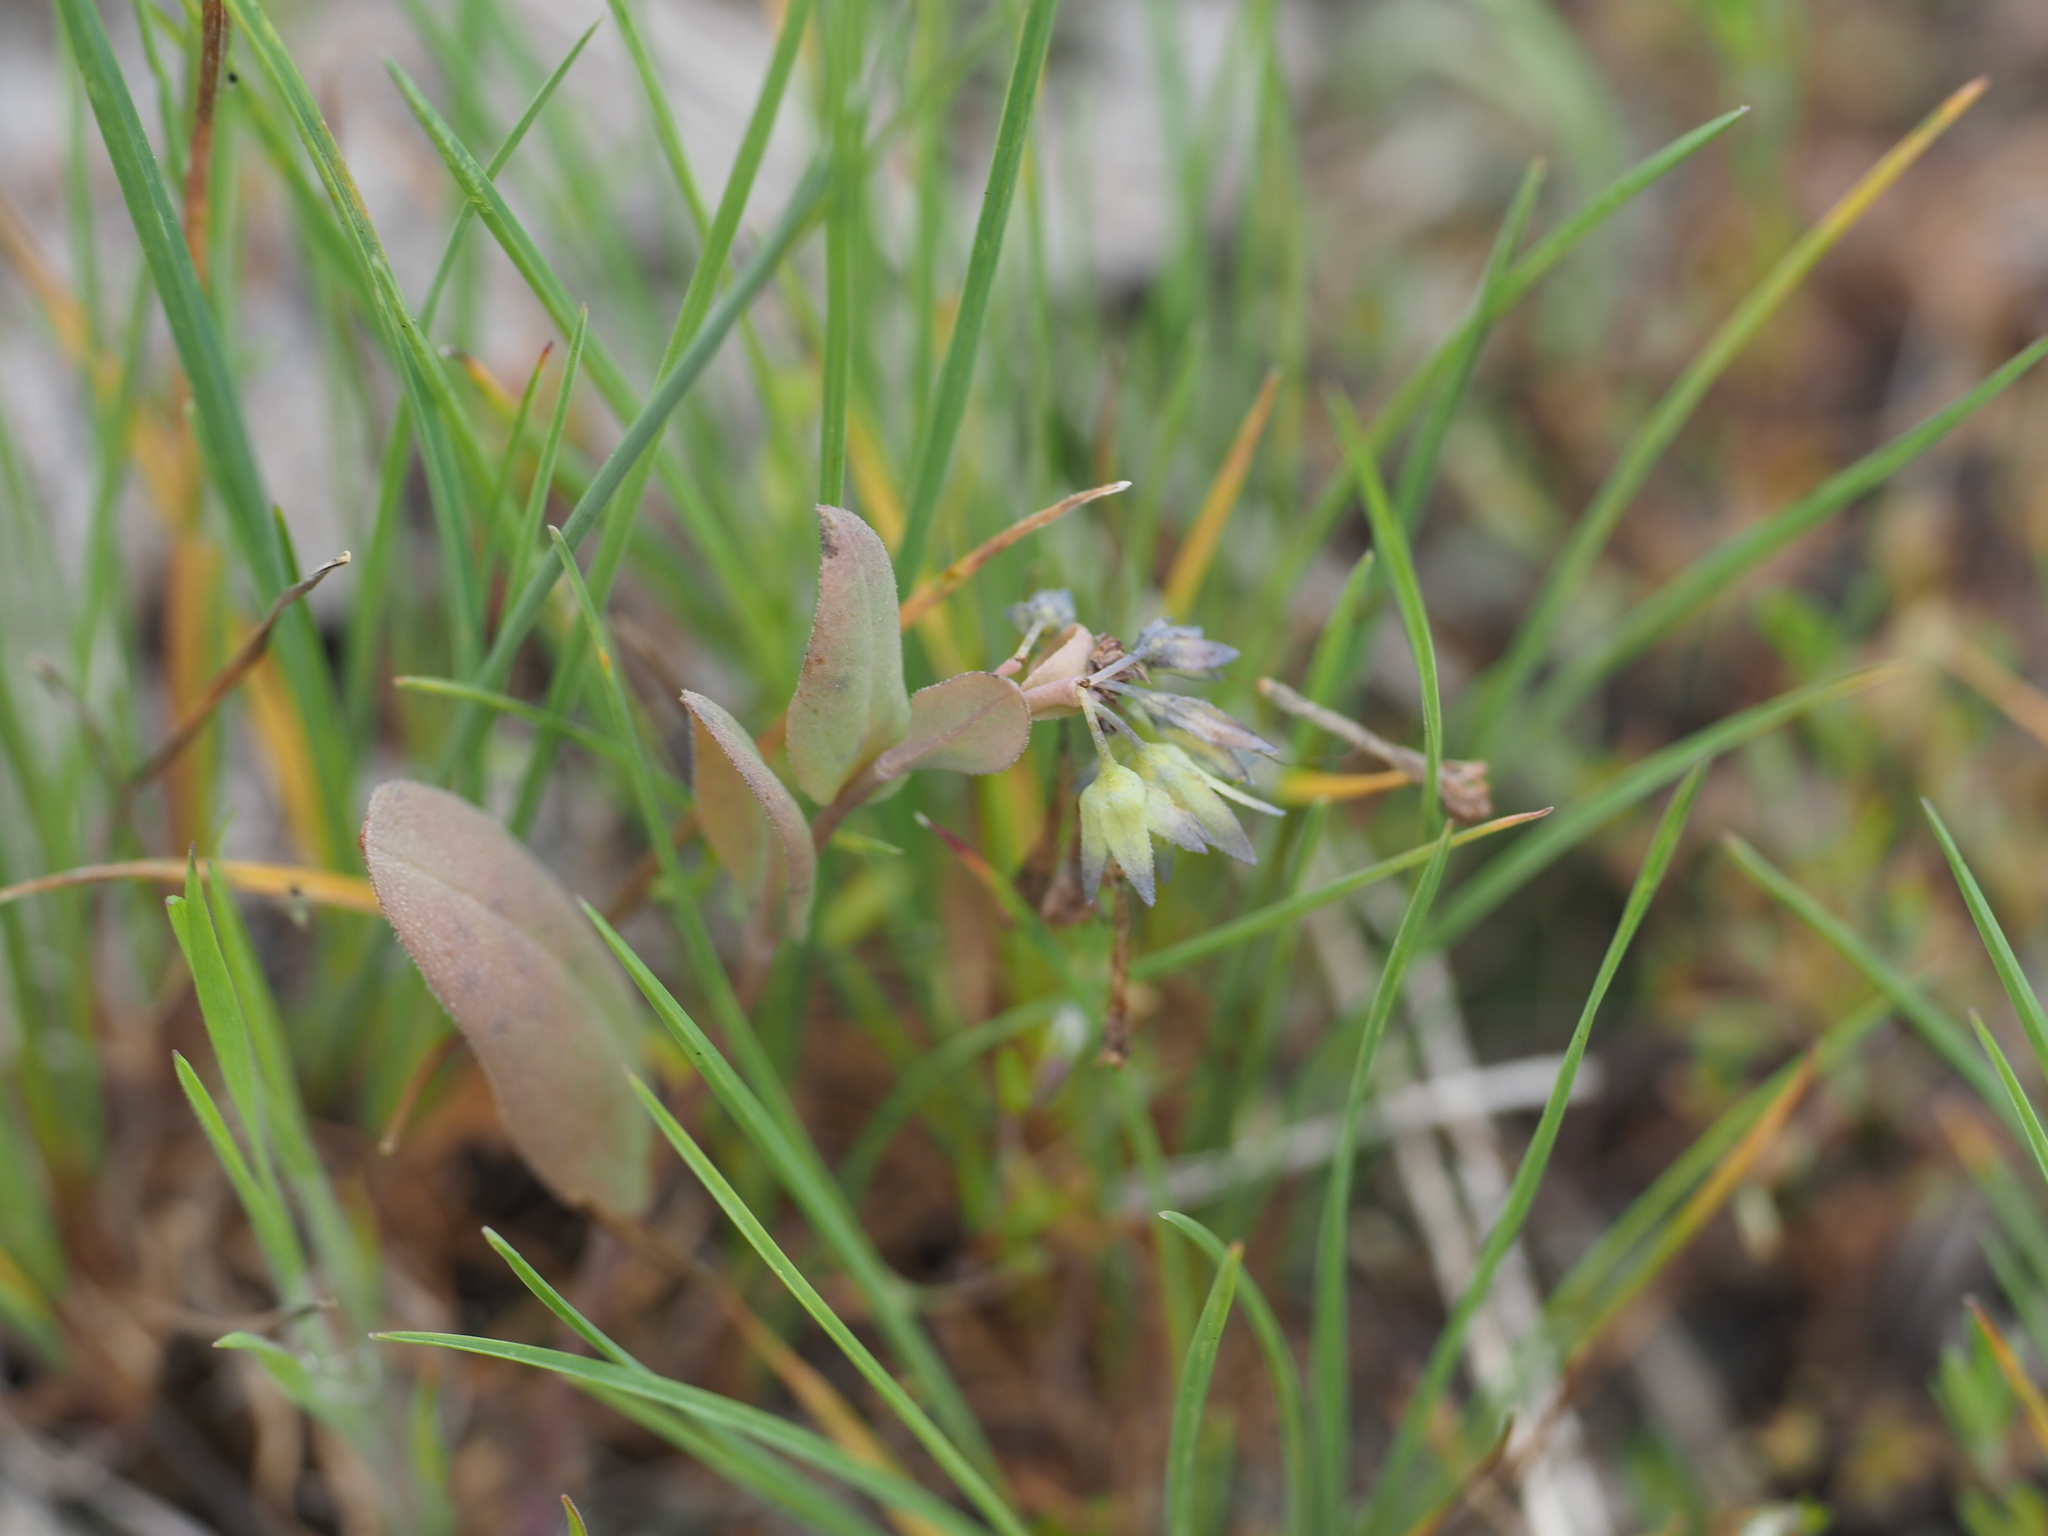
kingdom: Plantae
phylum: Tracheophyta
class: Magnoliopsida
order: Boraginales
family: Boraginaceae
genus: Mertensia
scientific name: Mertensia longiflora
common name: Large-flowered bluebells
